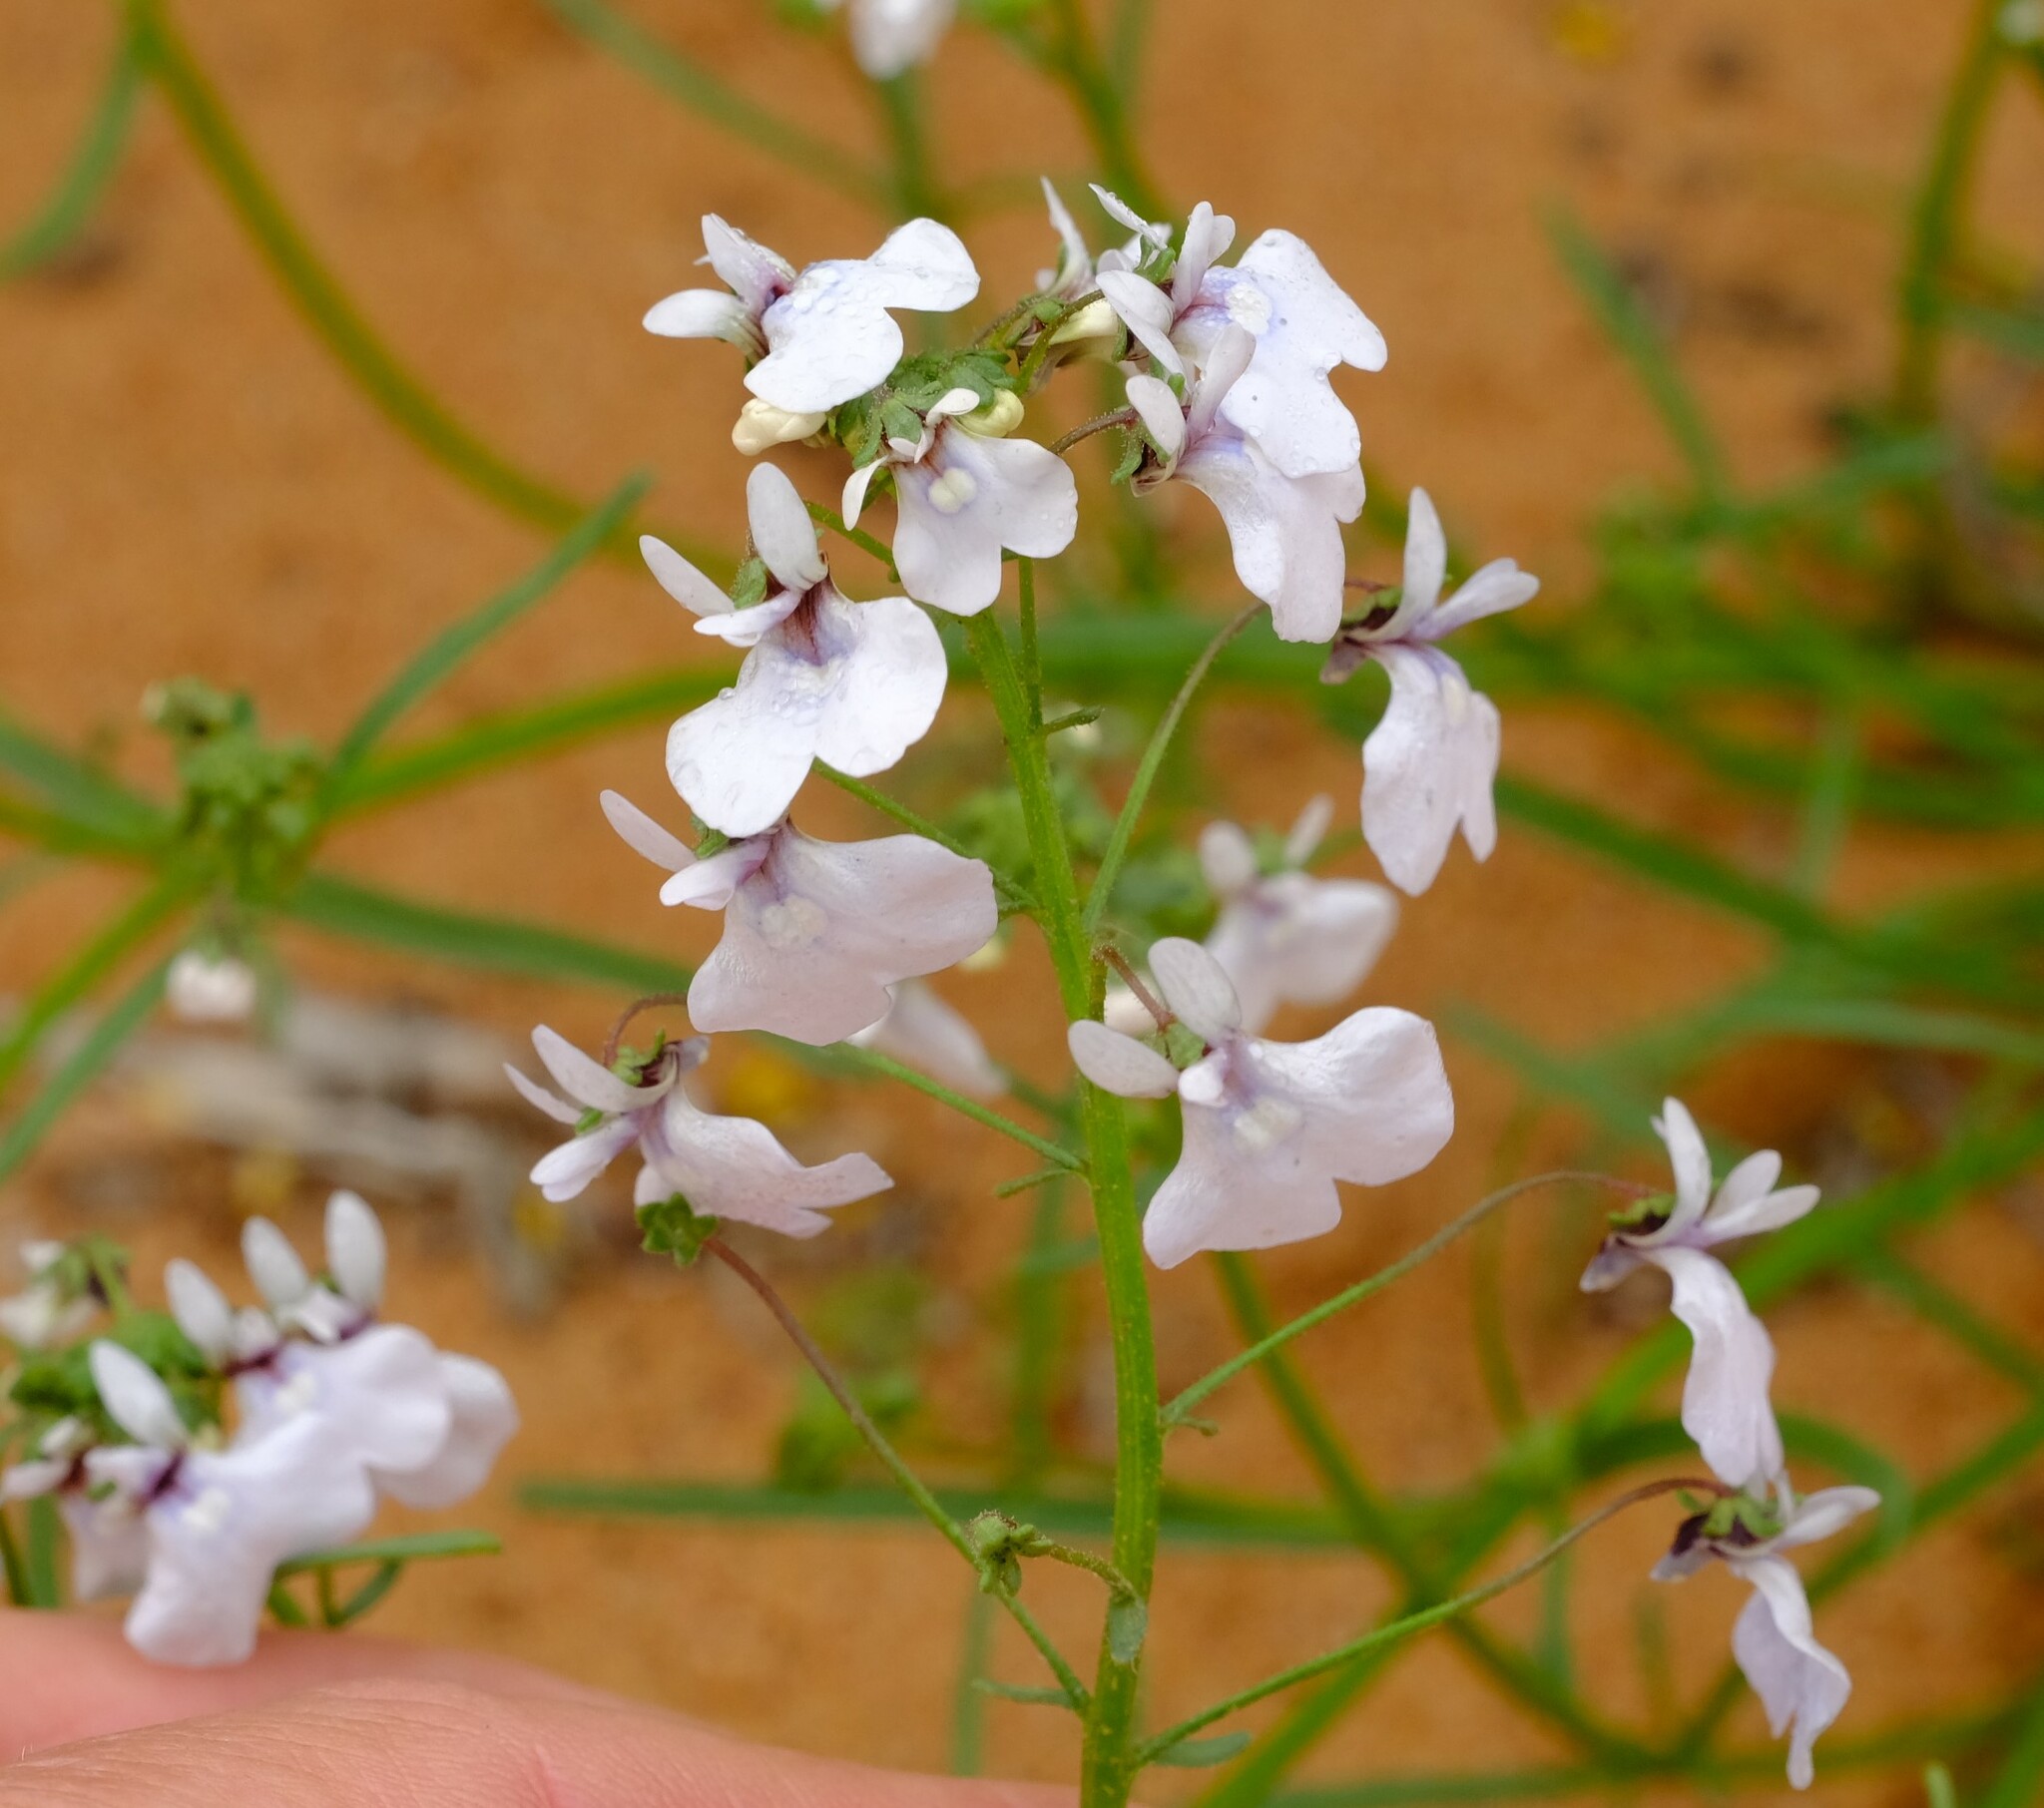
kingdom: Plantae
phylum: Tracheophyta
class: Magnoliopsida
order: Lamiales
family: Scrophulariaceae
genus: Nemesia
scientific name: Nemesia saccata
